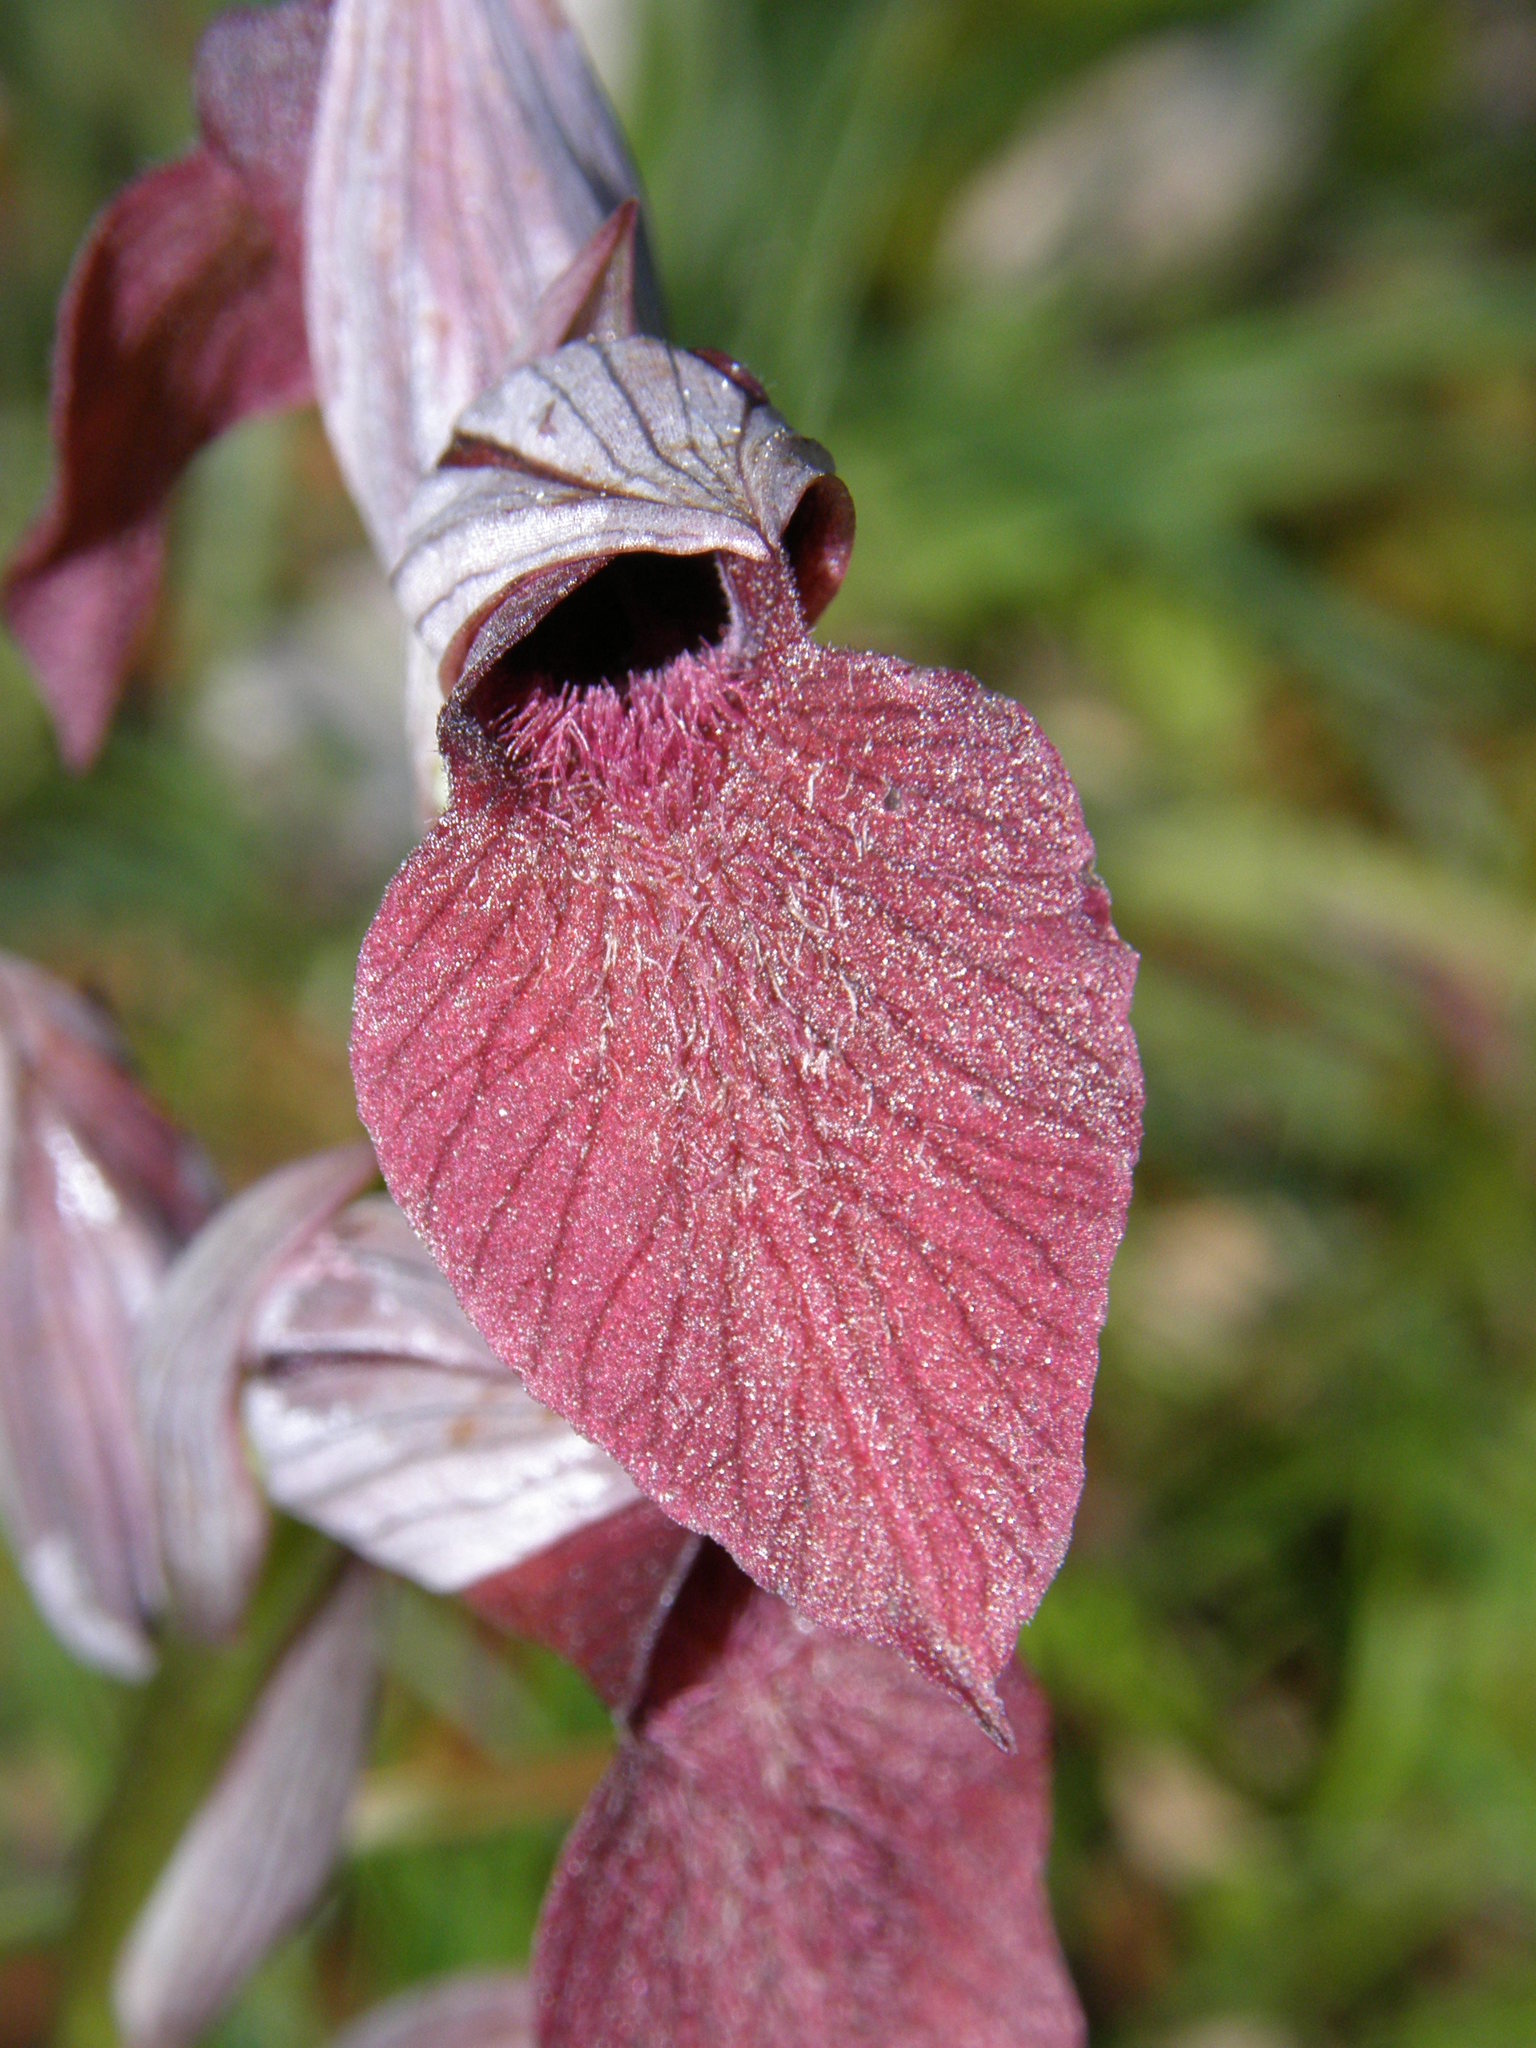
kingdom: Plantae
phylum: Tracheophyta
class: Liliopsida
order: Asparagales
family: Orchidaceae
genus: Serapias
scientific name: Serapias cordigera
